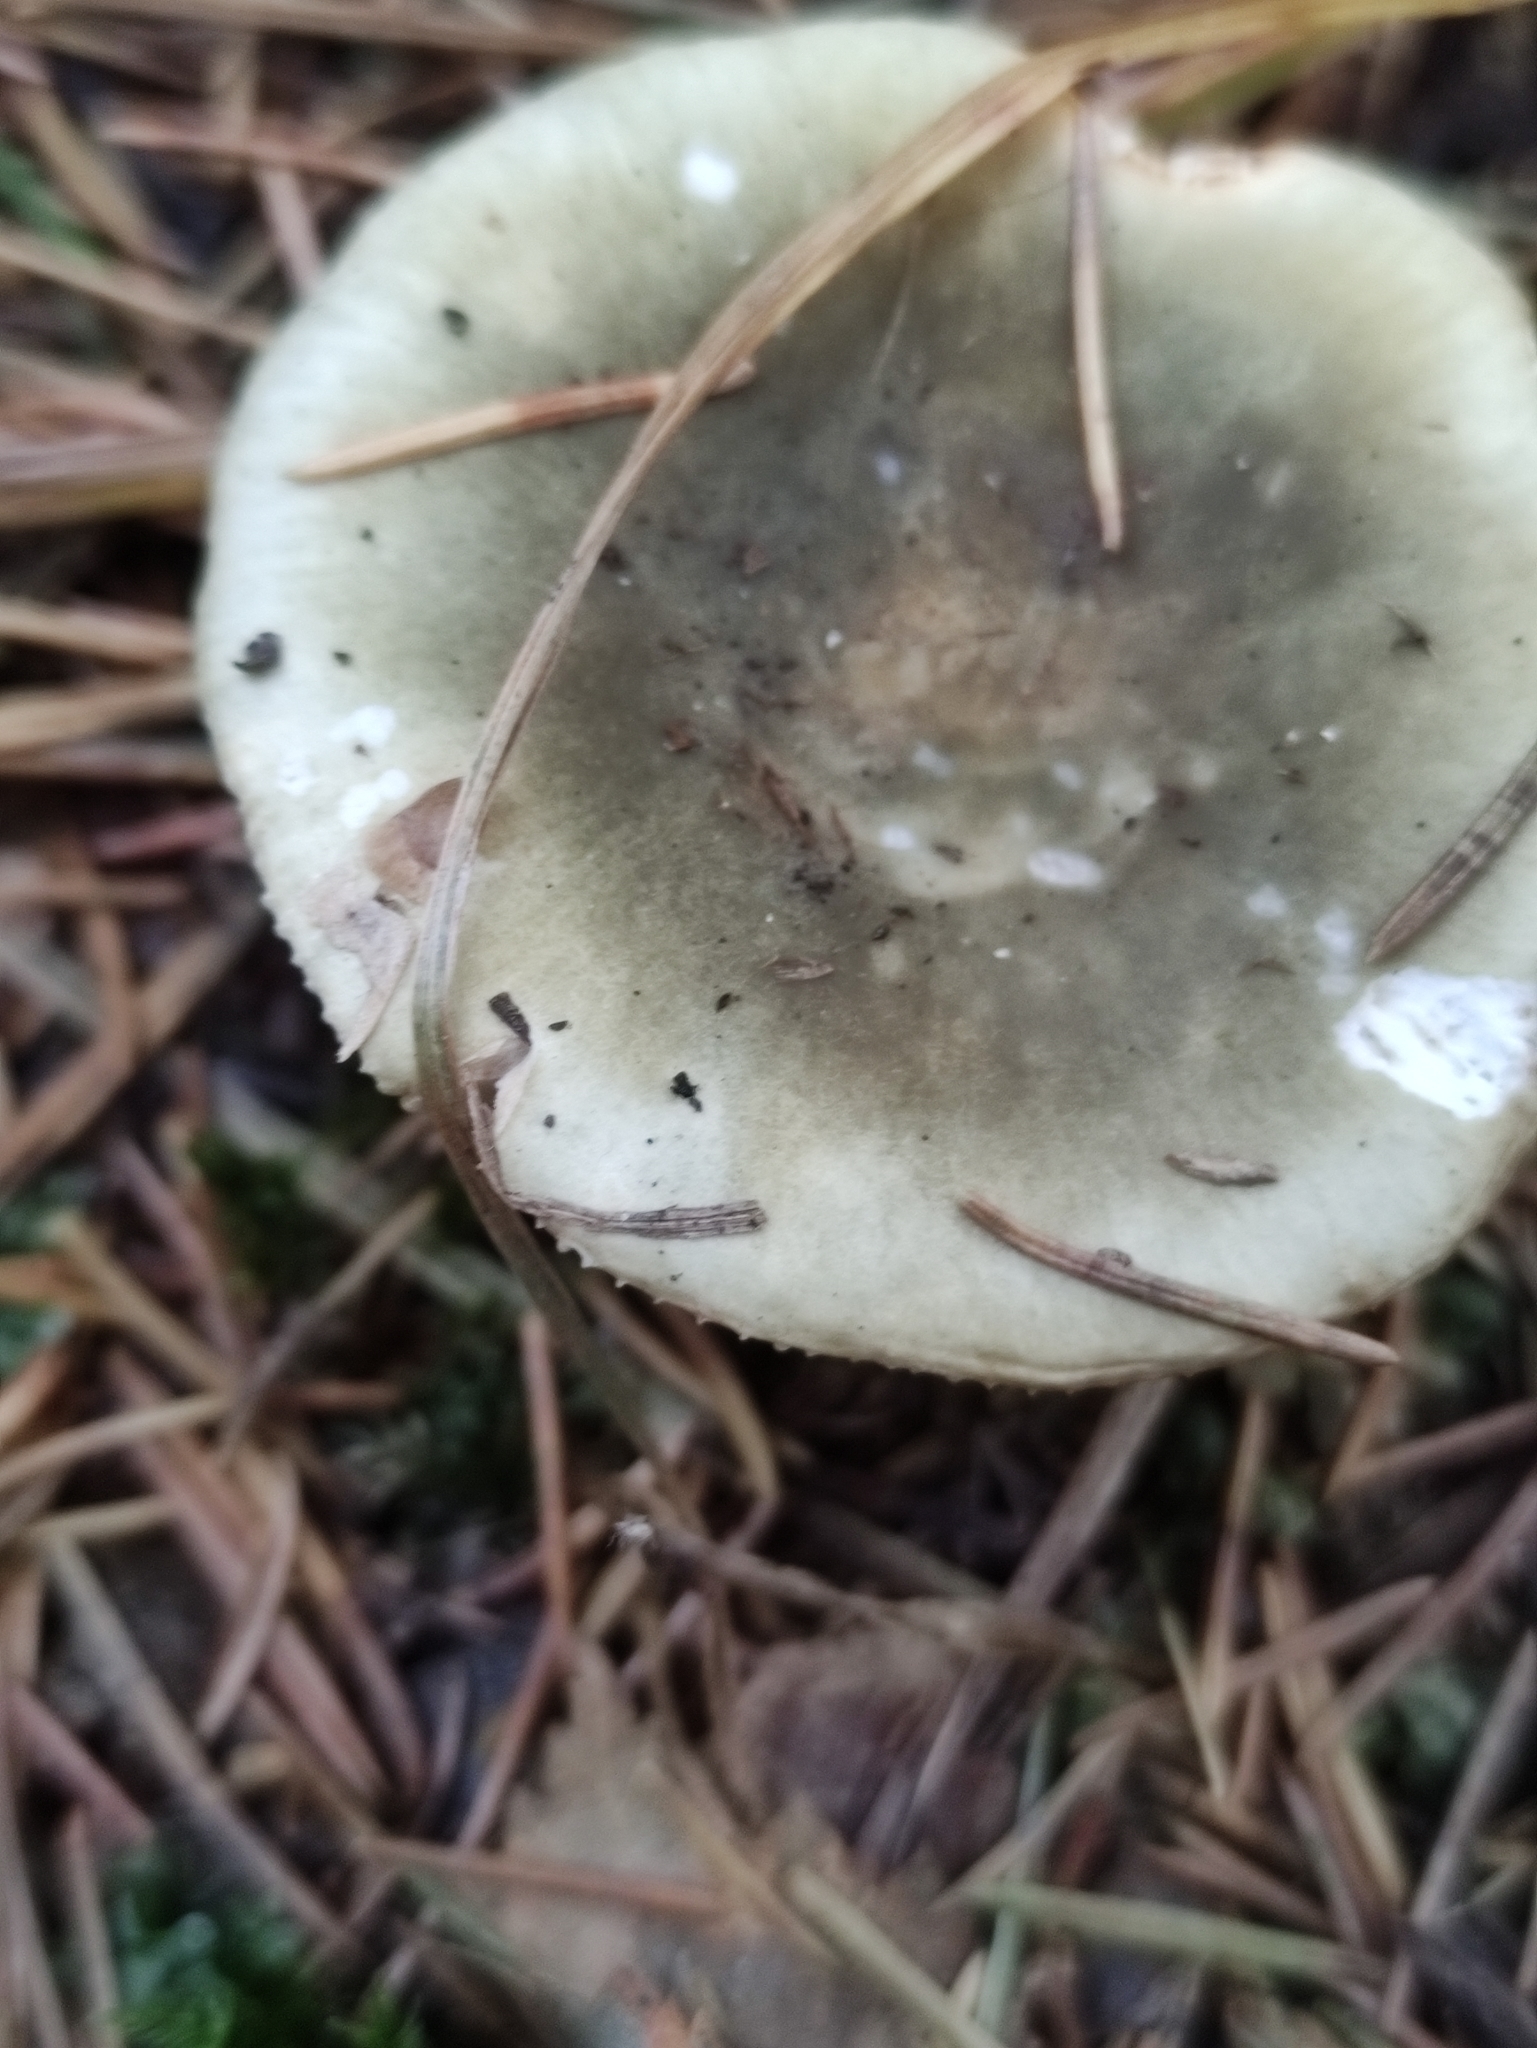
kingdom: Fungi
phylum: Basidiomycota
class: Agaricomycetes
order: Russulales
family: Russulaceae
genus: Russula
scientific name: Russula aeruginea
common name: Green brittlegill
